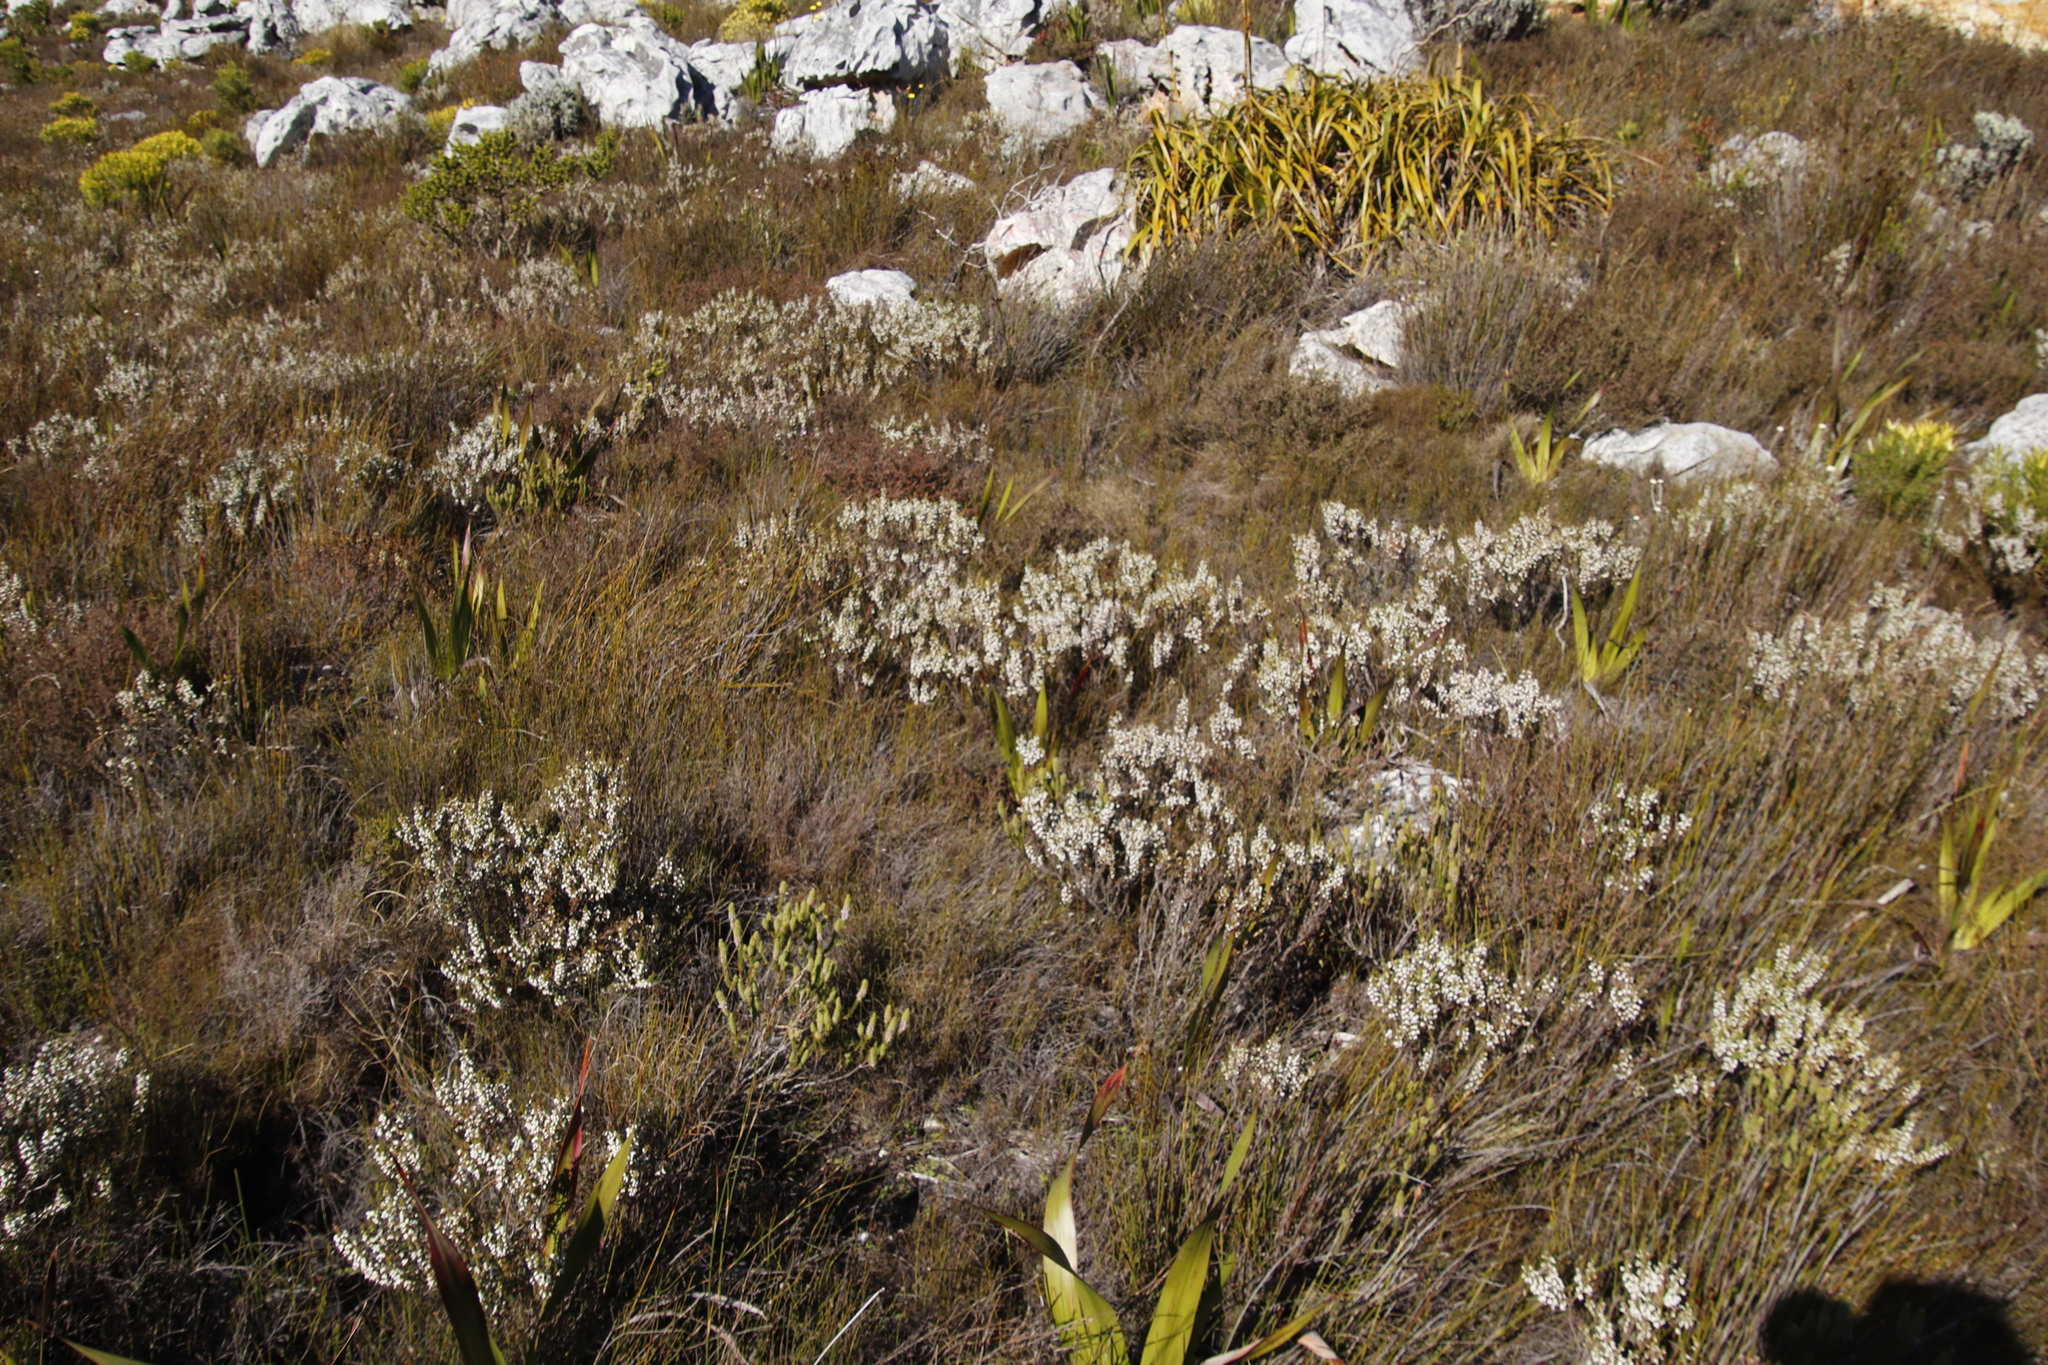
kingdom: Plantae
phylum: Tracheophyta
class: Magnoliopsida
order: Ericales
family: Ericaceae
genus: Erica
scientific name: Erica imbricata
